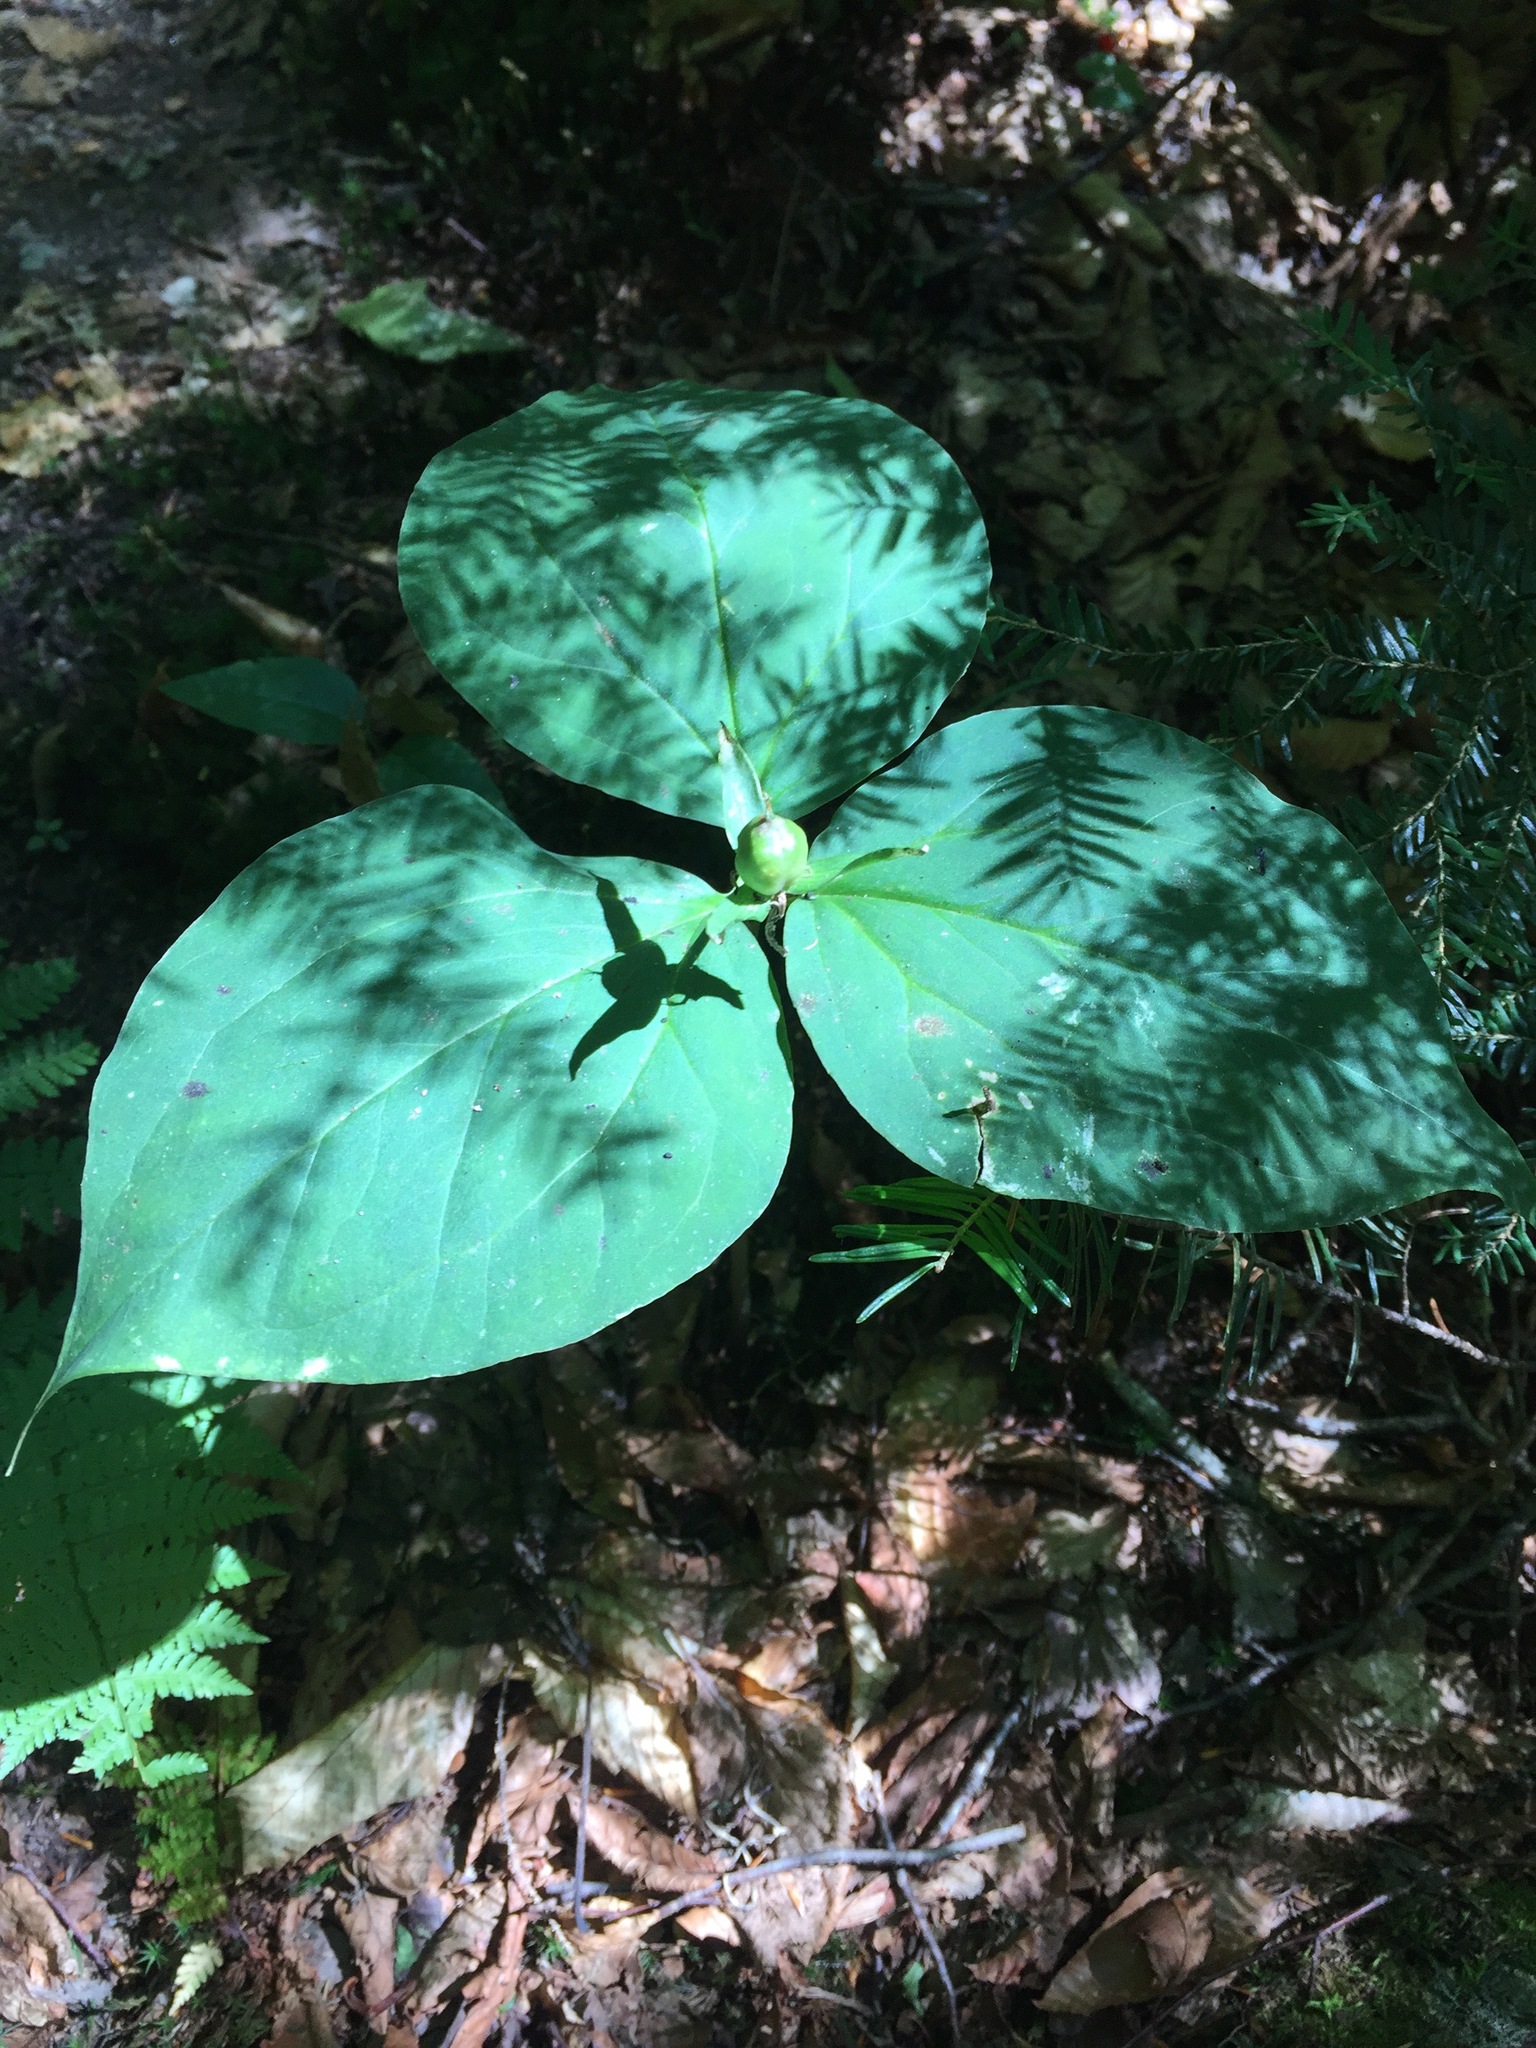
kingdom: Plantae
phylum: Tracheophyta
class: Liliopsida
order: Liliales
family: Melanthiaceae
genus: Trillium
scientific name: Trillium undulatum
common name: Paint trillium
